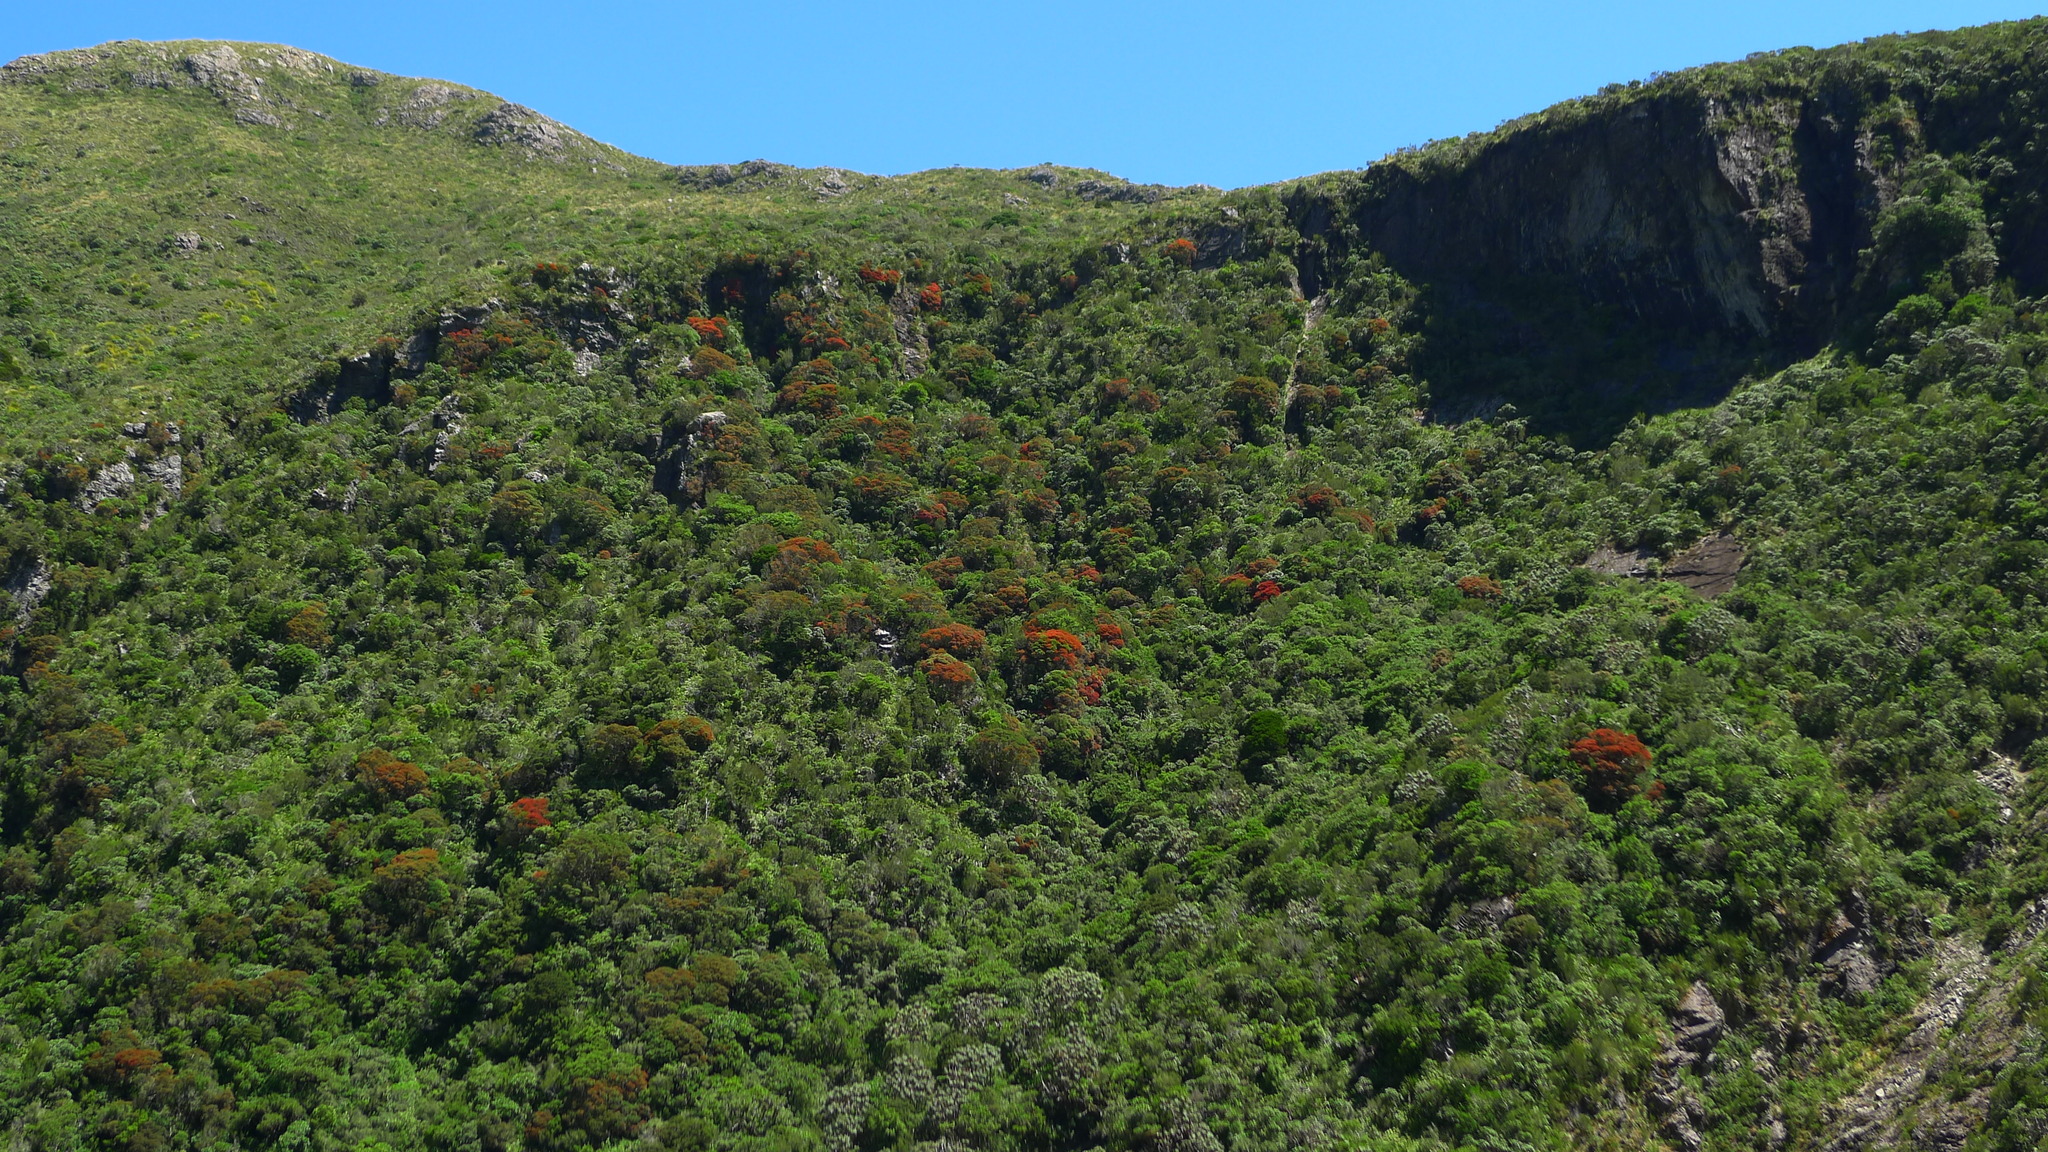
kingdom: Plantae
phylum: Tracheophyta
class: Magnoliopsida
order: Myrtales
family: Myrtaceae
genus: Metrosideros
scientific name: Metrosideros umbellata
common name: Southern rata
